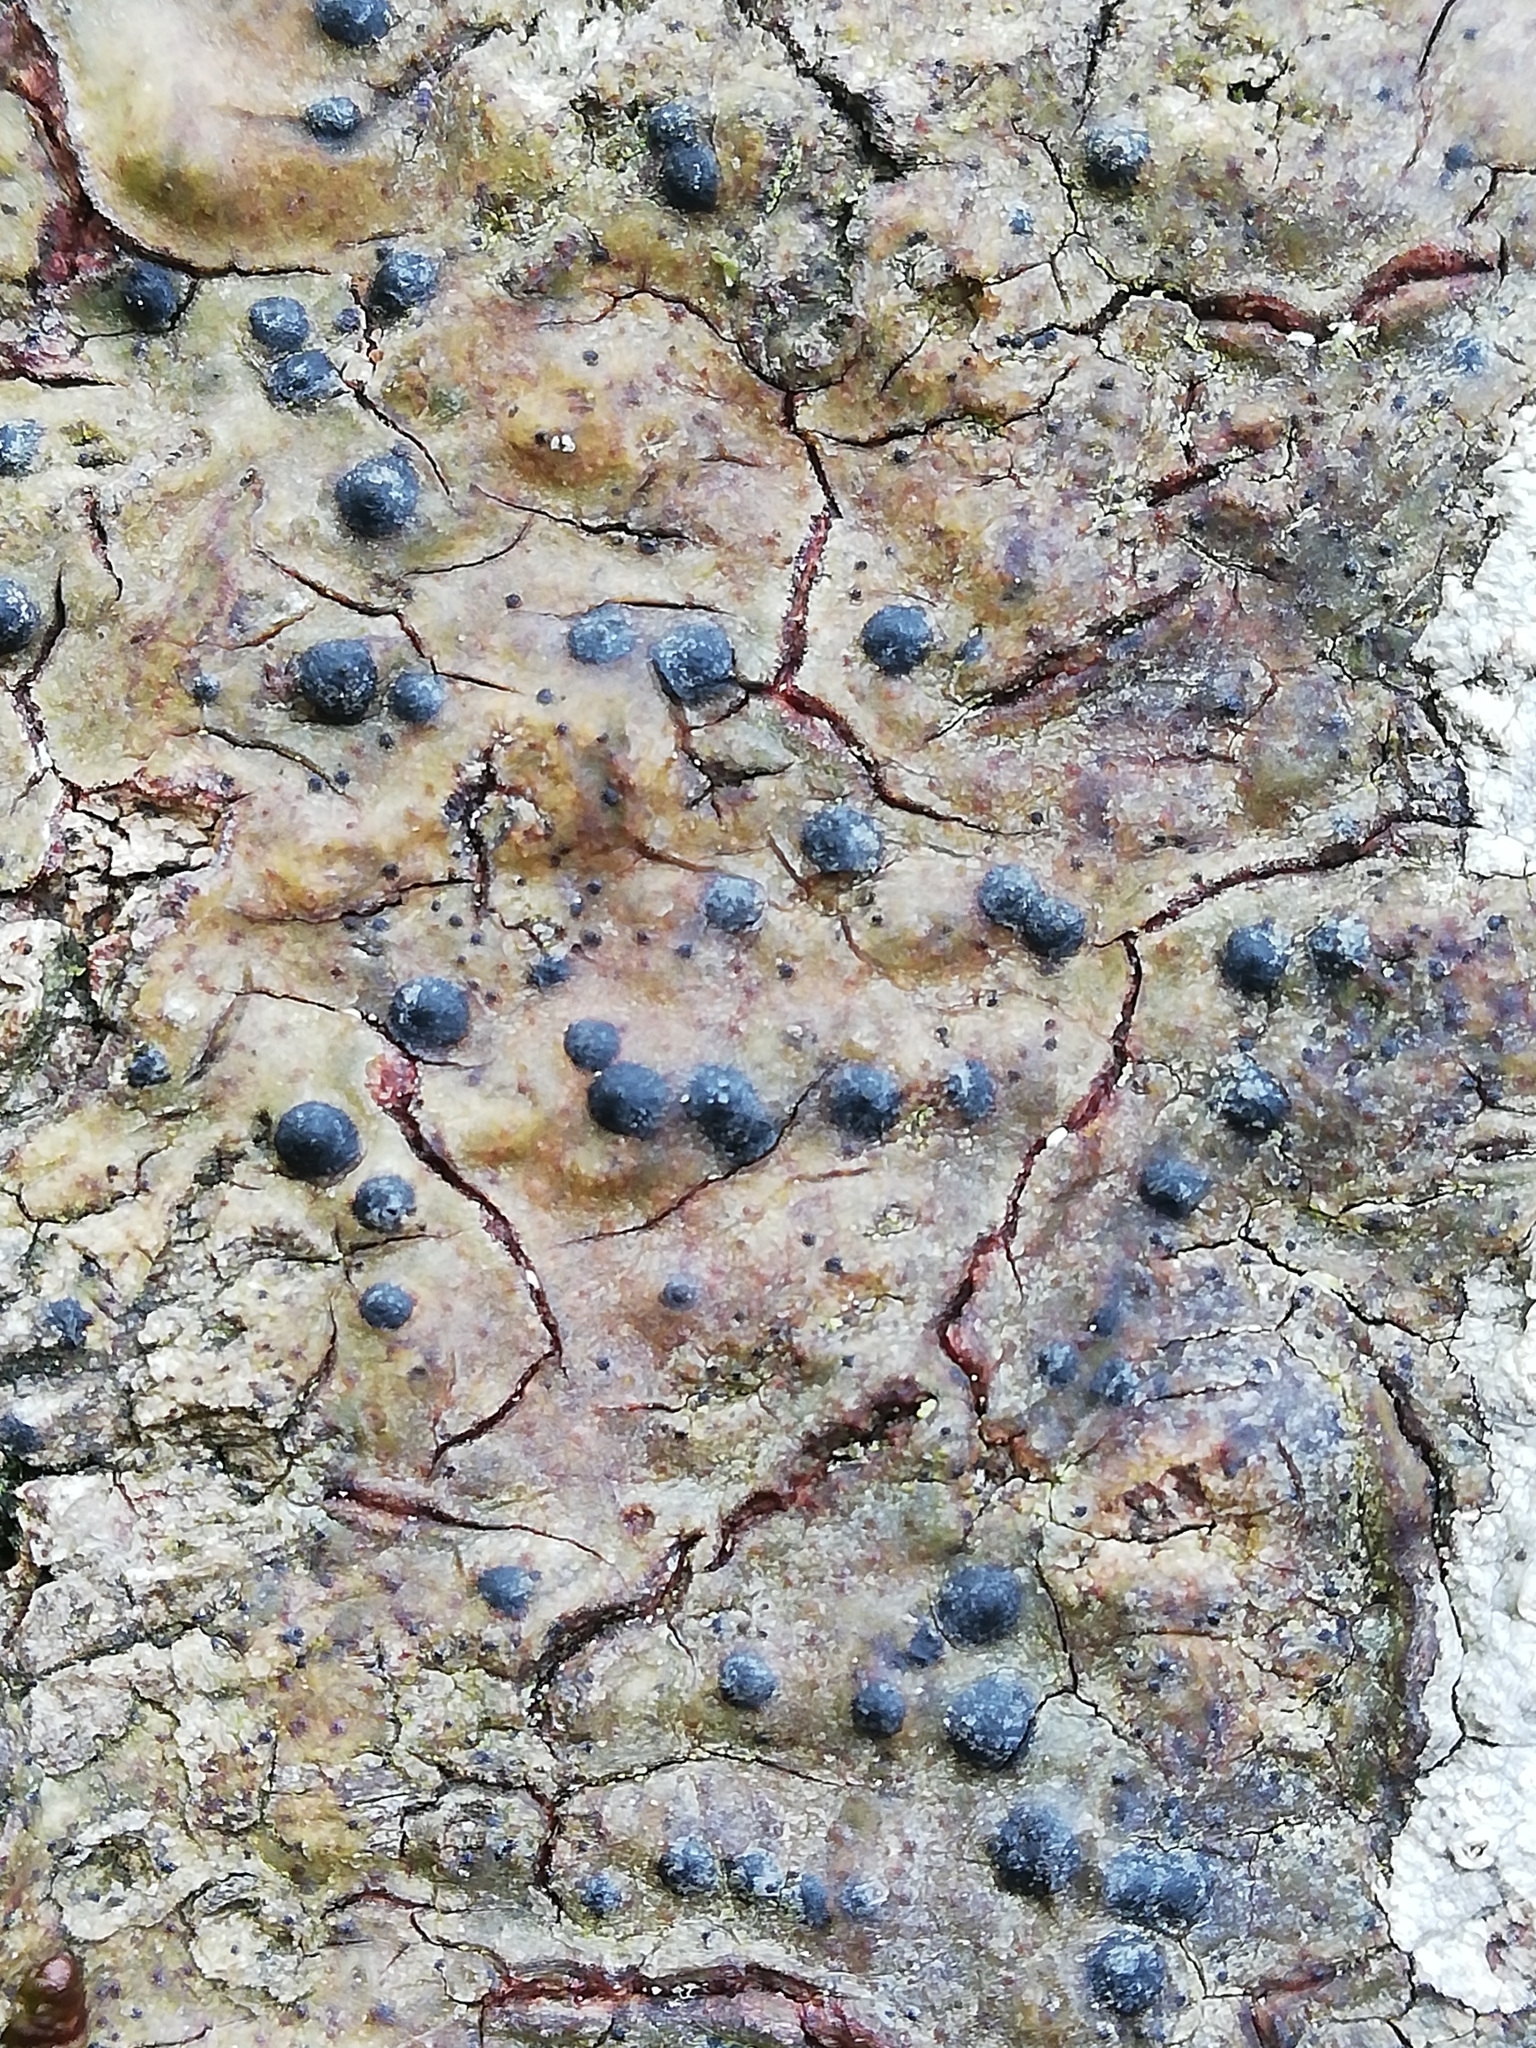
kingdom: Fungi
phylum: Ascomycota
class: Eurotiomycetes
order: Pyrenulales
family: Pyrenulaceae
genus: Pyrenula
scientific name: Pyrenula nitida
